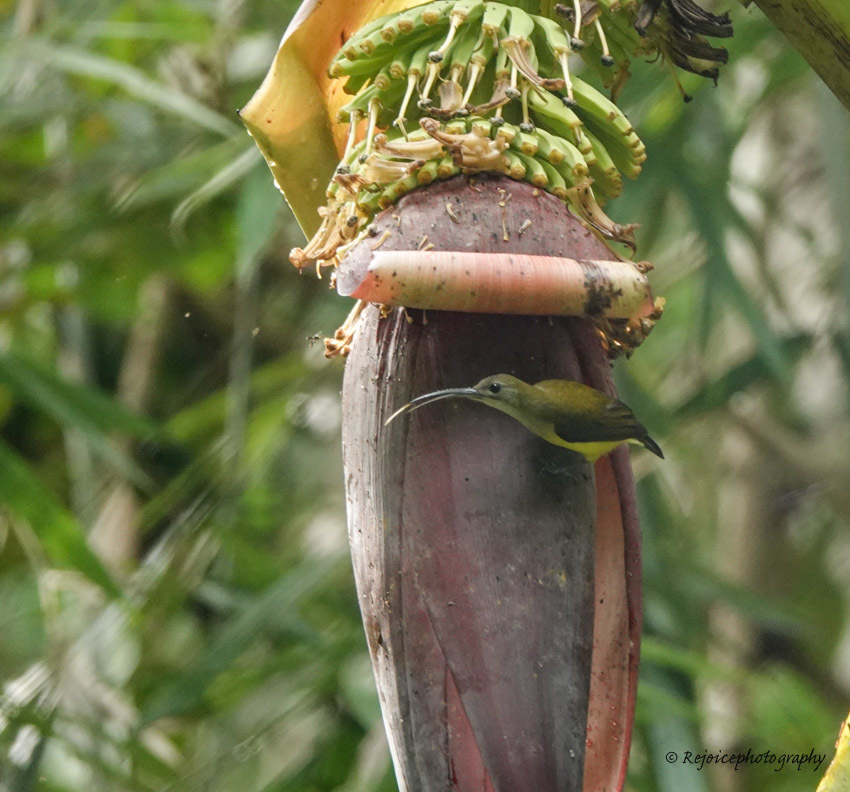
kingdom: Animalia
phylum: Chordata
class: Aves
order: Passeriformes
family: Nectariniidae
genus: Arachnothera
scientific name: Arachnothera longirostra
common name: Little spiderhunter
